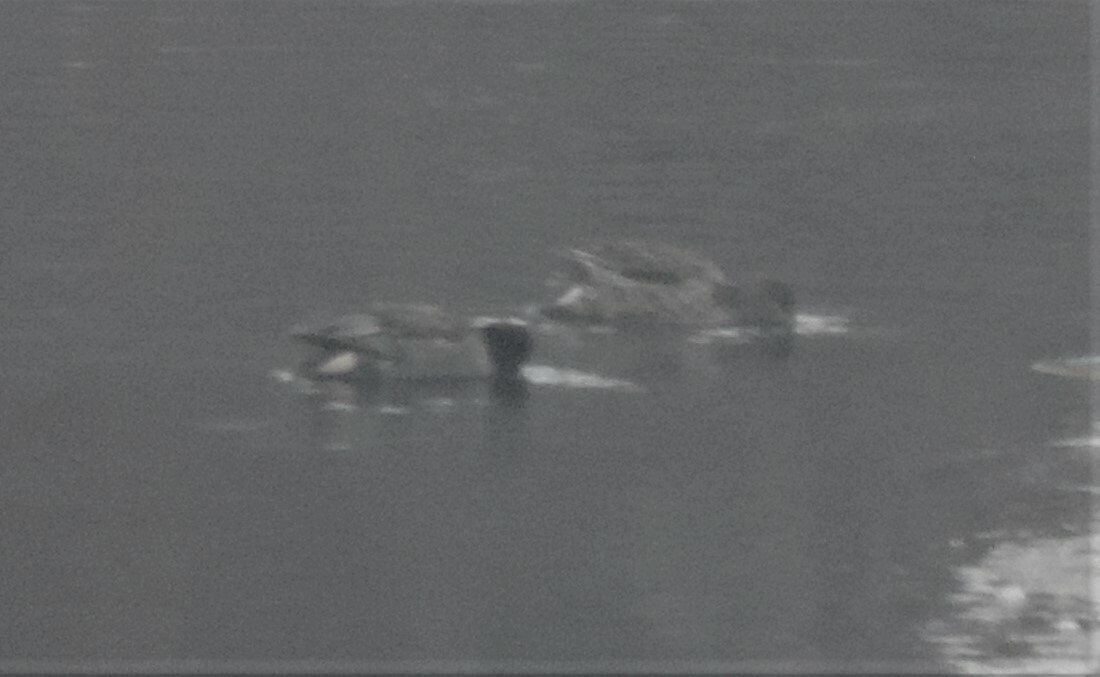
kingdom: Animalia
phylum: Chordata
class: Aves
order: Anseriformes
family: Anatidae
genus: Anas
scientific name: Anas crecca
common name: Eurasian teal
